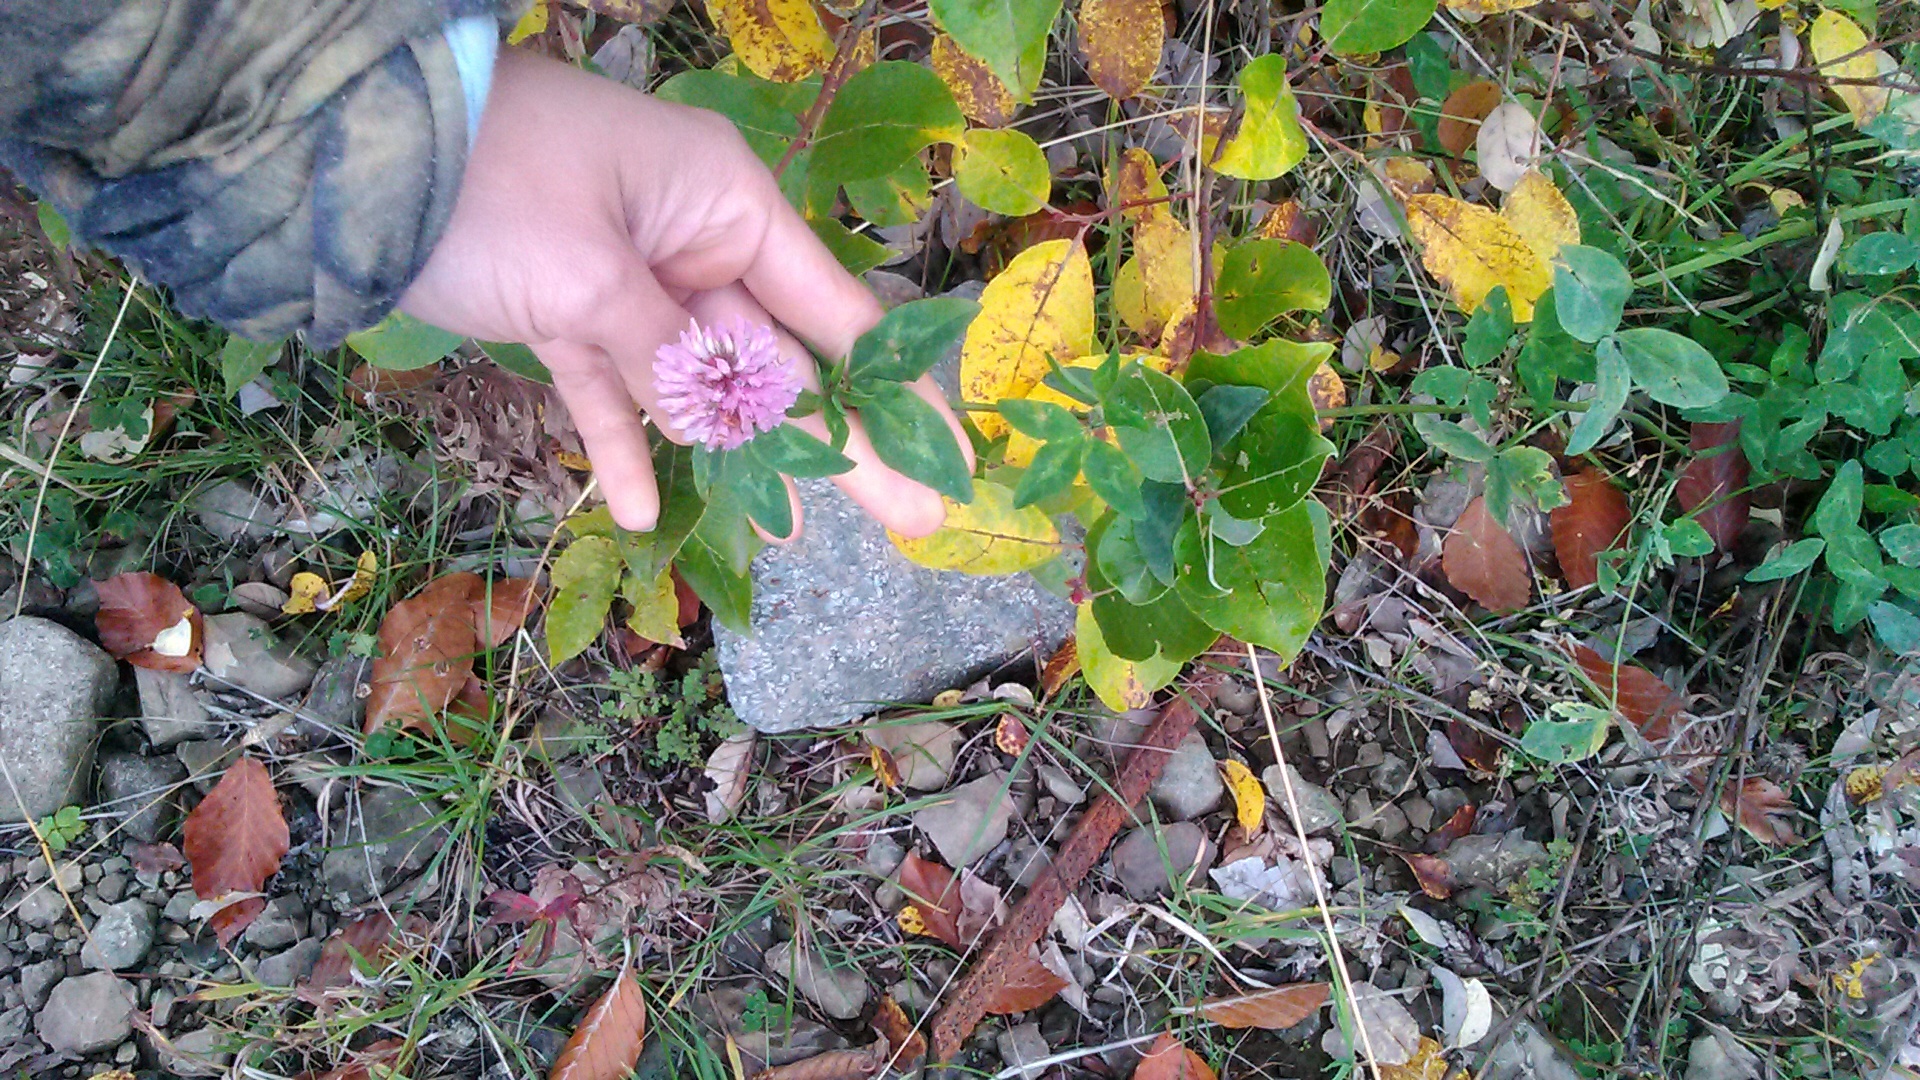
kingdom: Plantae
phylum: Tracheophyta
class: Magnoliopsida
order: Fabales
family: Fabaceae
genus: Trifolium
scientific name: Trifolium pratense
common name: Red clover
